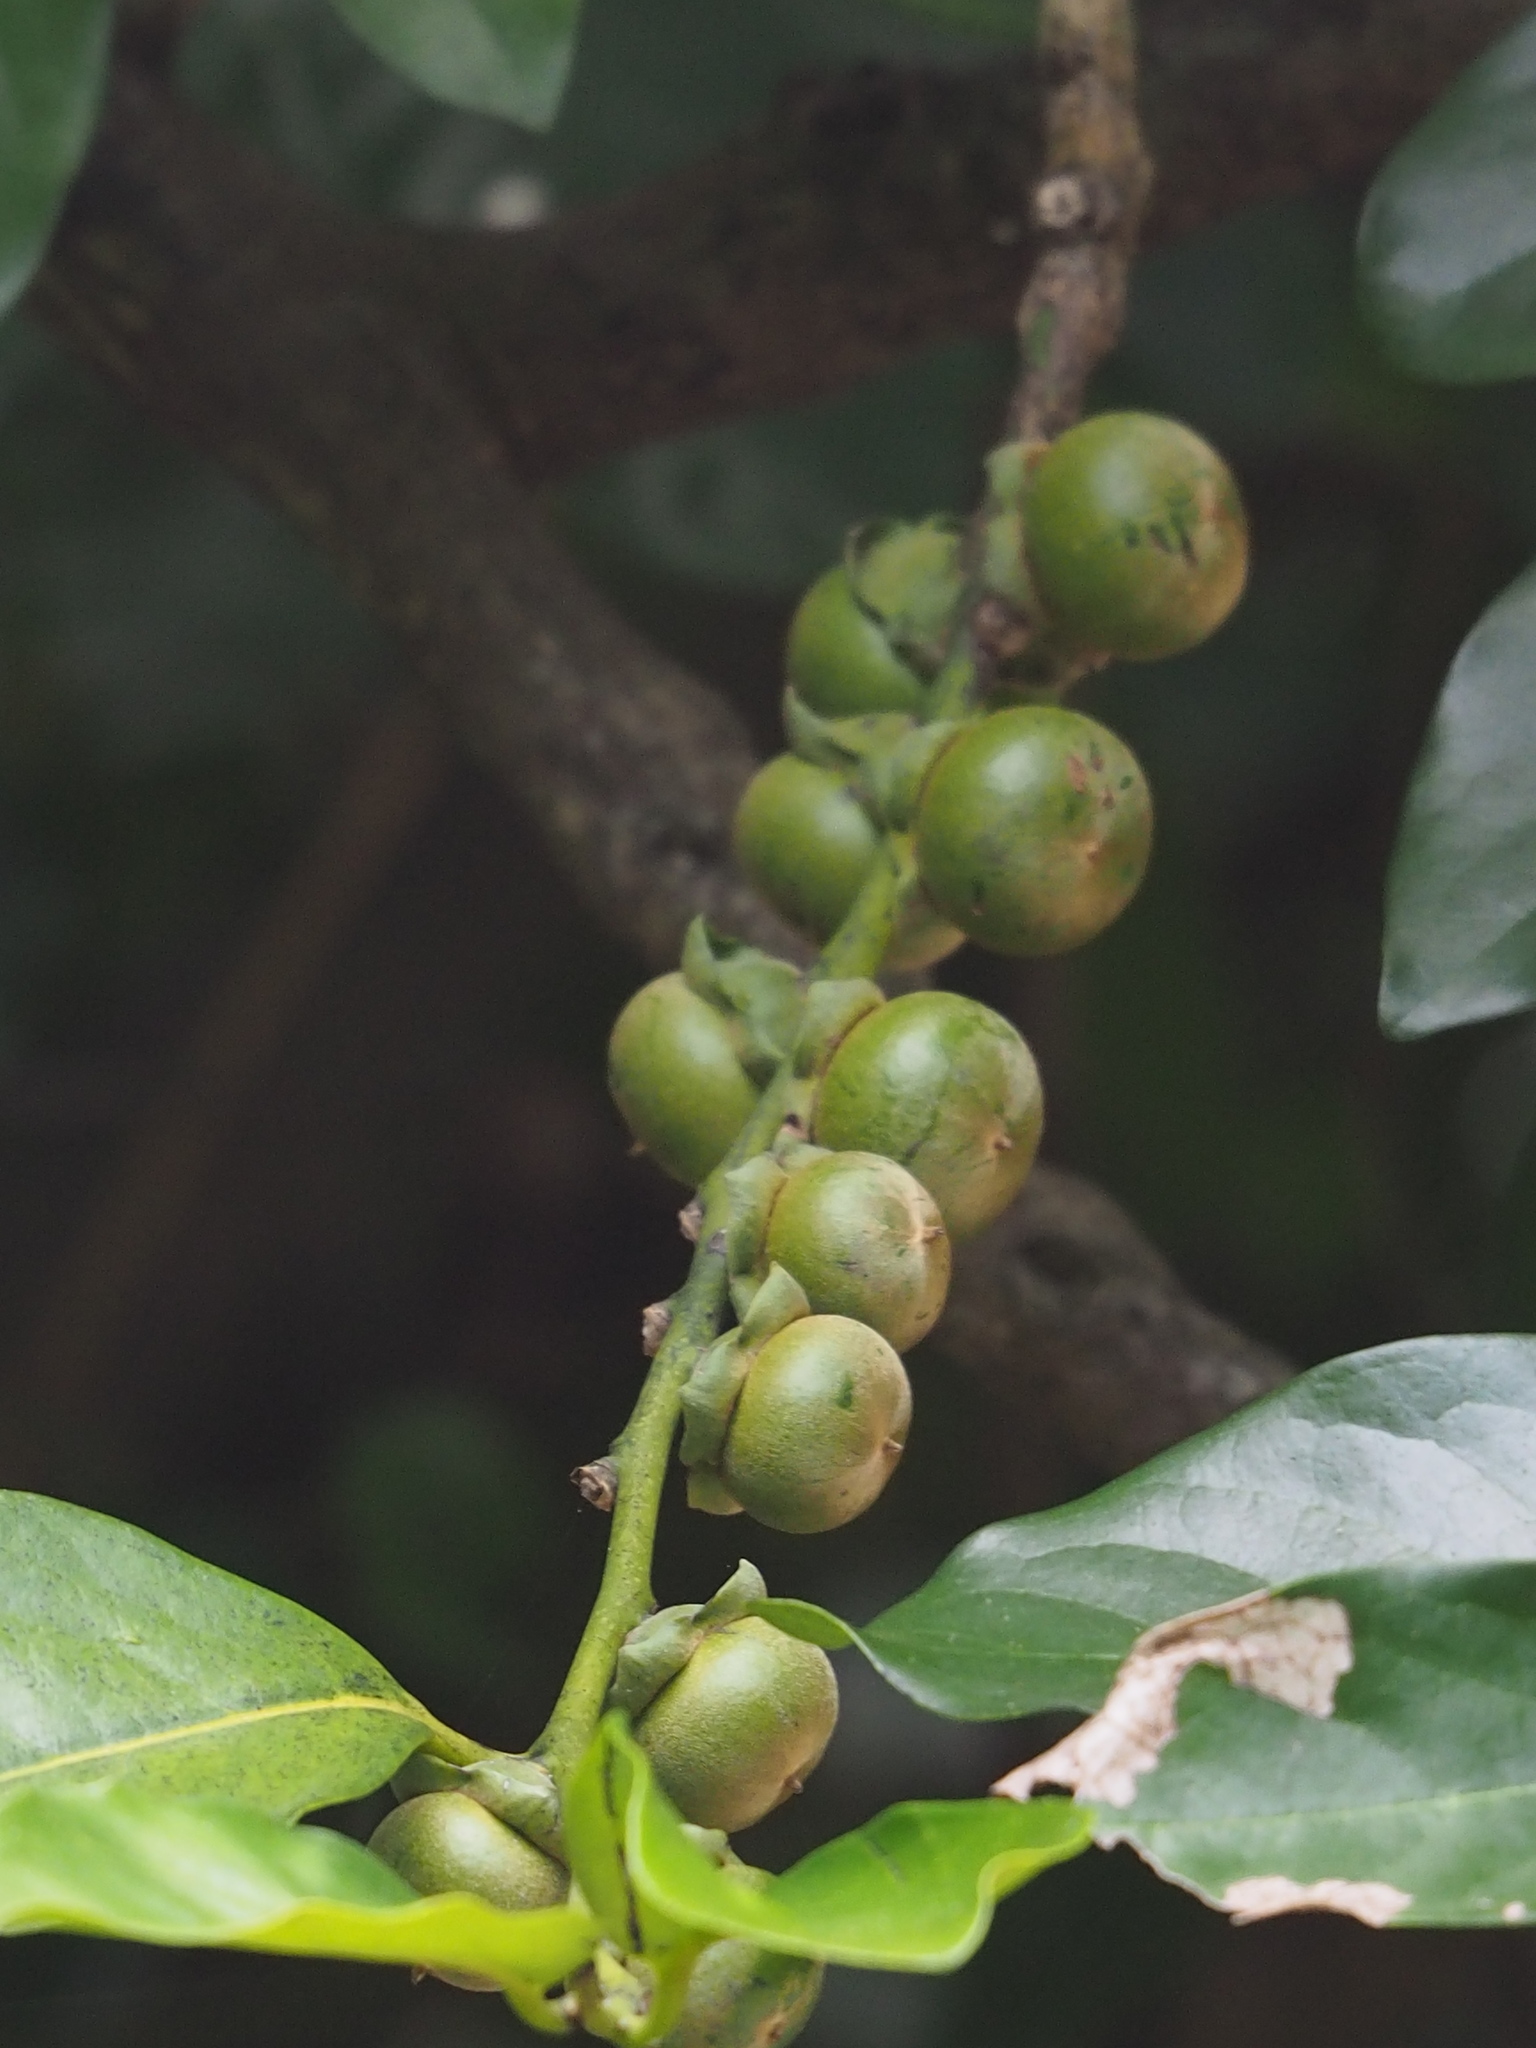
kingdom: Plantae
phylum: Tracheophyta
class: Magnoliopsida
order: Ericales
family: Ebenaceae
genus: Diospyros
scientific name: Diospyros maritima
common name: Malaysian persimmon
